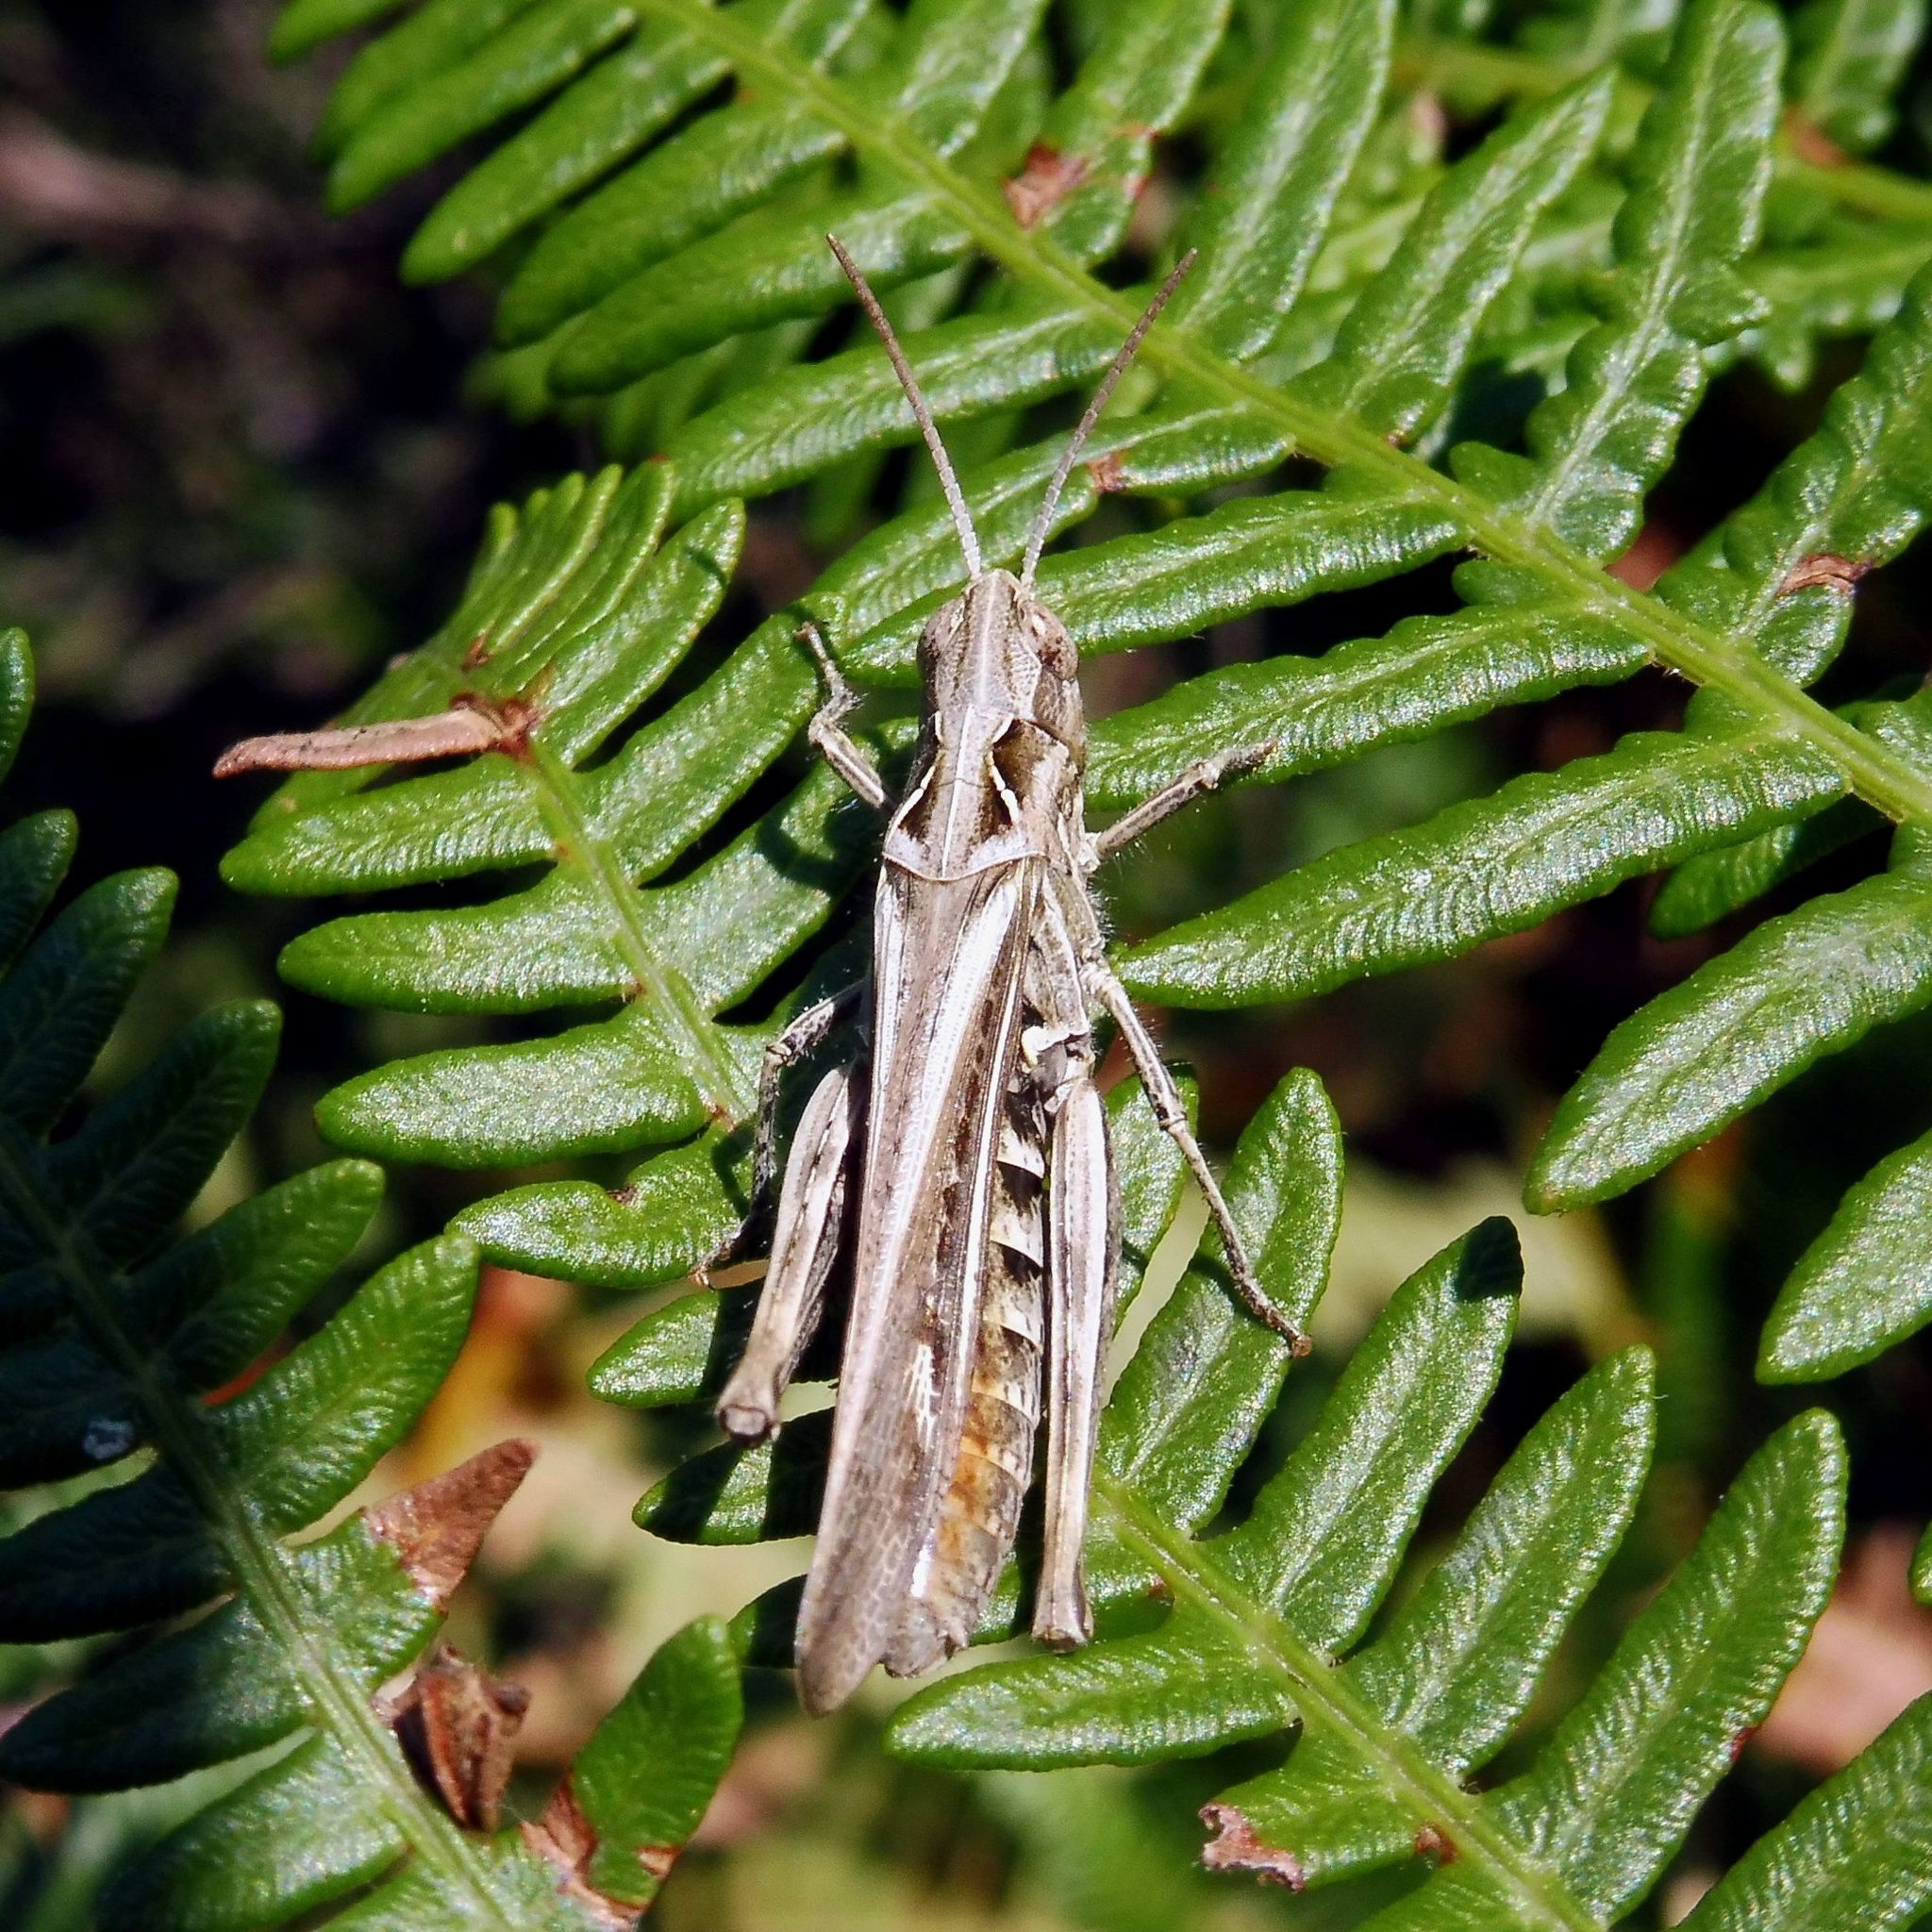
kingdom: Animalia
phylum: Arthropoda
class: Insecta
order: Orthoptera
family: Acrididae
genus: Chorthippus
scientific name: Chorthippus brunneus
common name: Field grasshopper
